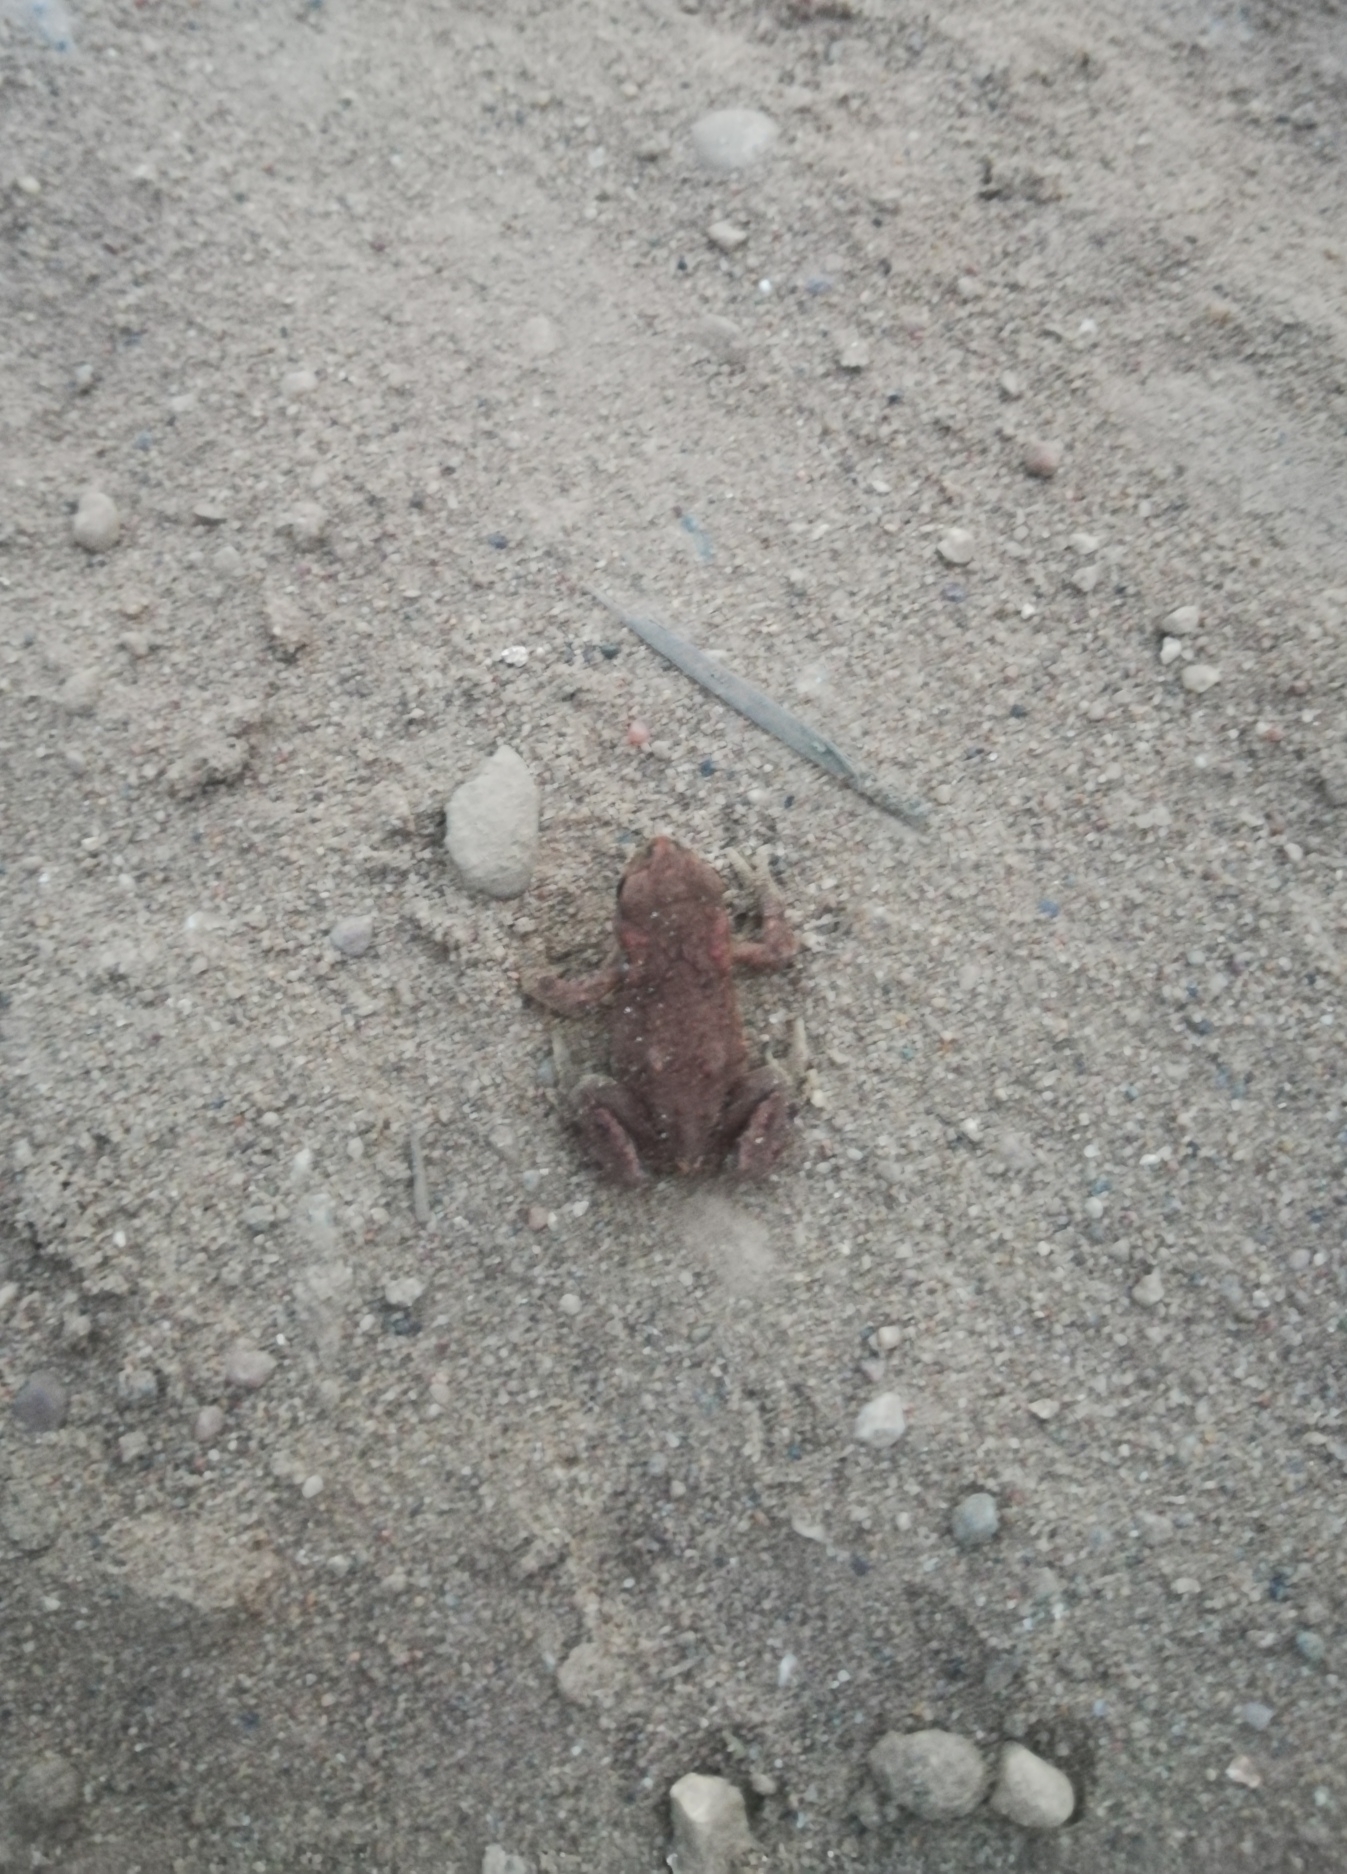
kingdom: Animalia
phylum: Chordata
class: Amphibia
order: Anura
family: Bufonidae
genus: Bufo
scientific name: Bufo bufo
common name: Common toad
